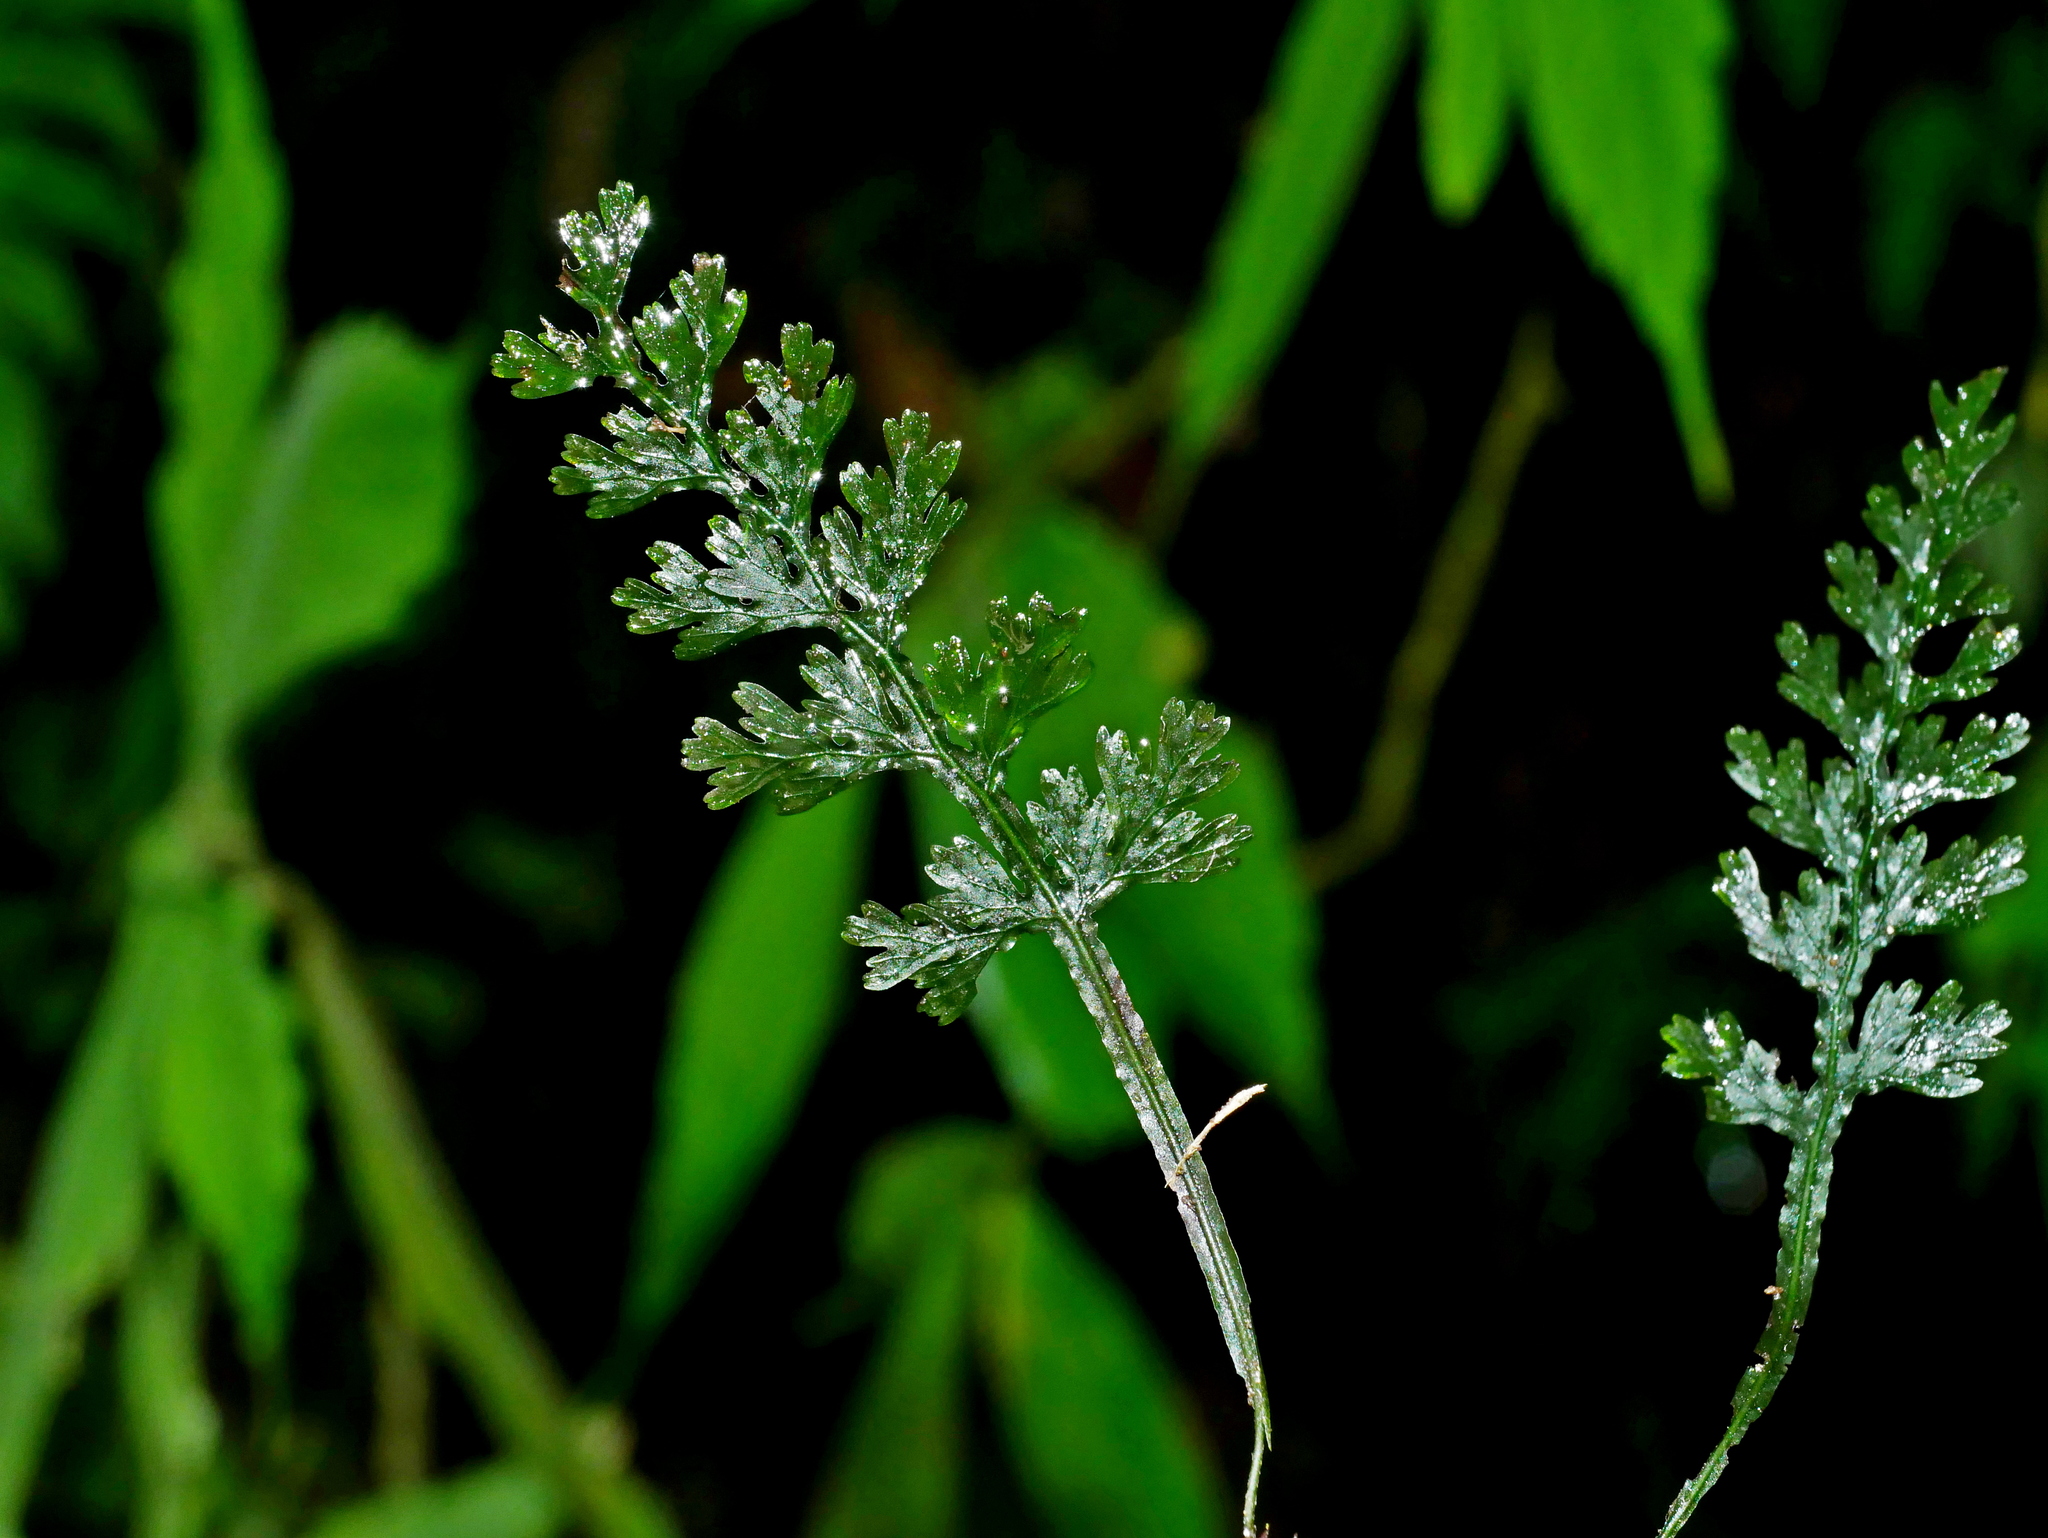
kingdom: Plantae
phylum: Tracheophyta
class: Polypodiopsida
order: Hymenophyllales
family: Hymenophyllaceae
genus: Vandenboschia
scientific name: Vandenboschia kalamocarpa
